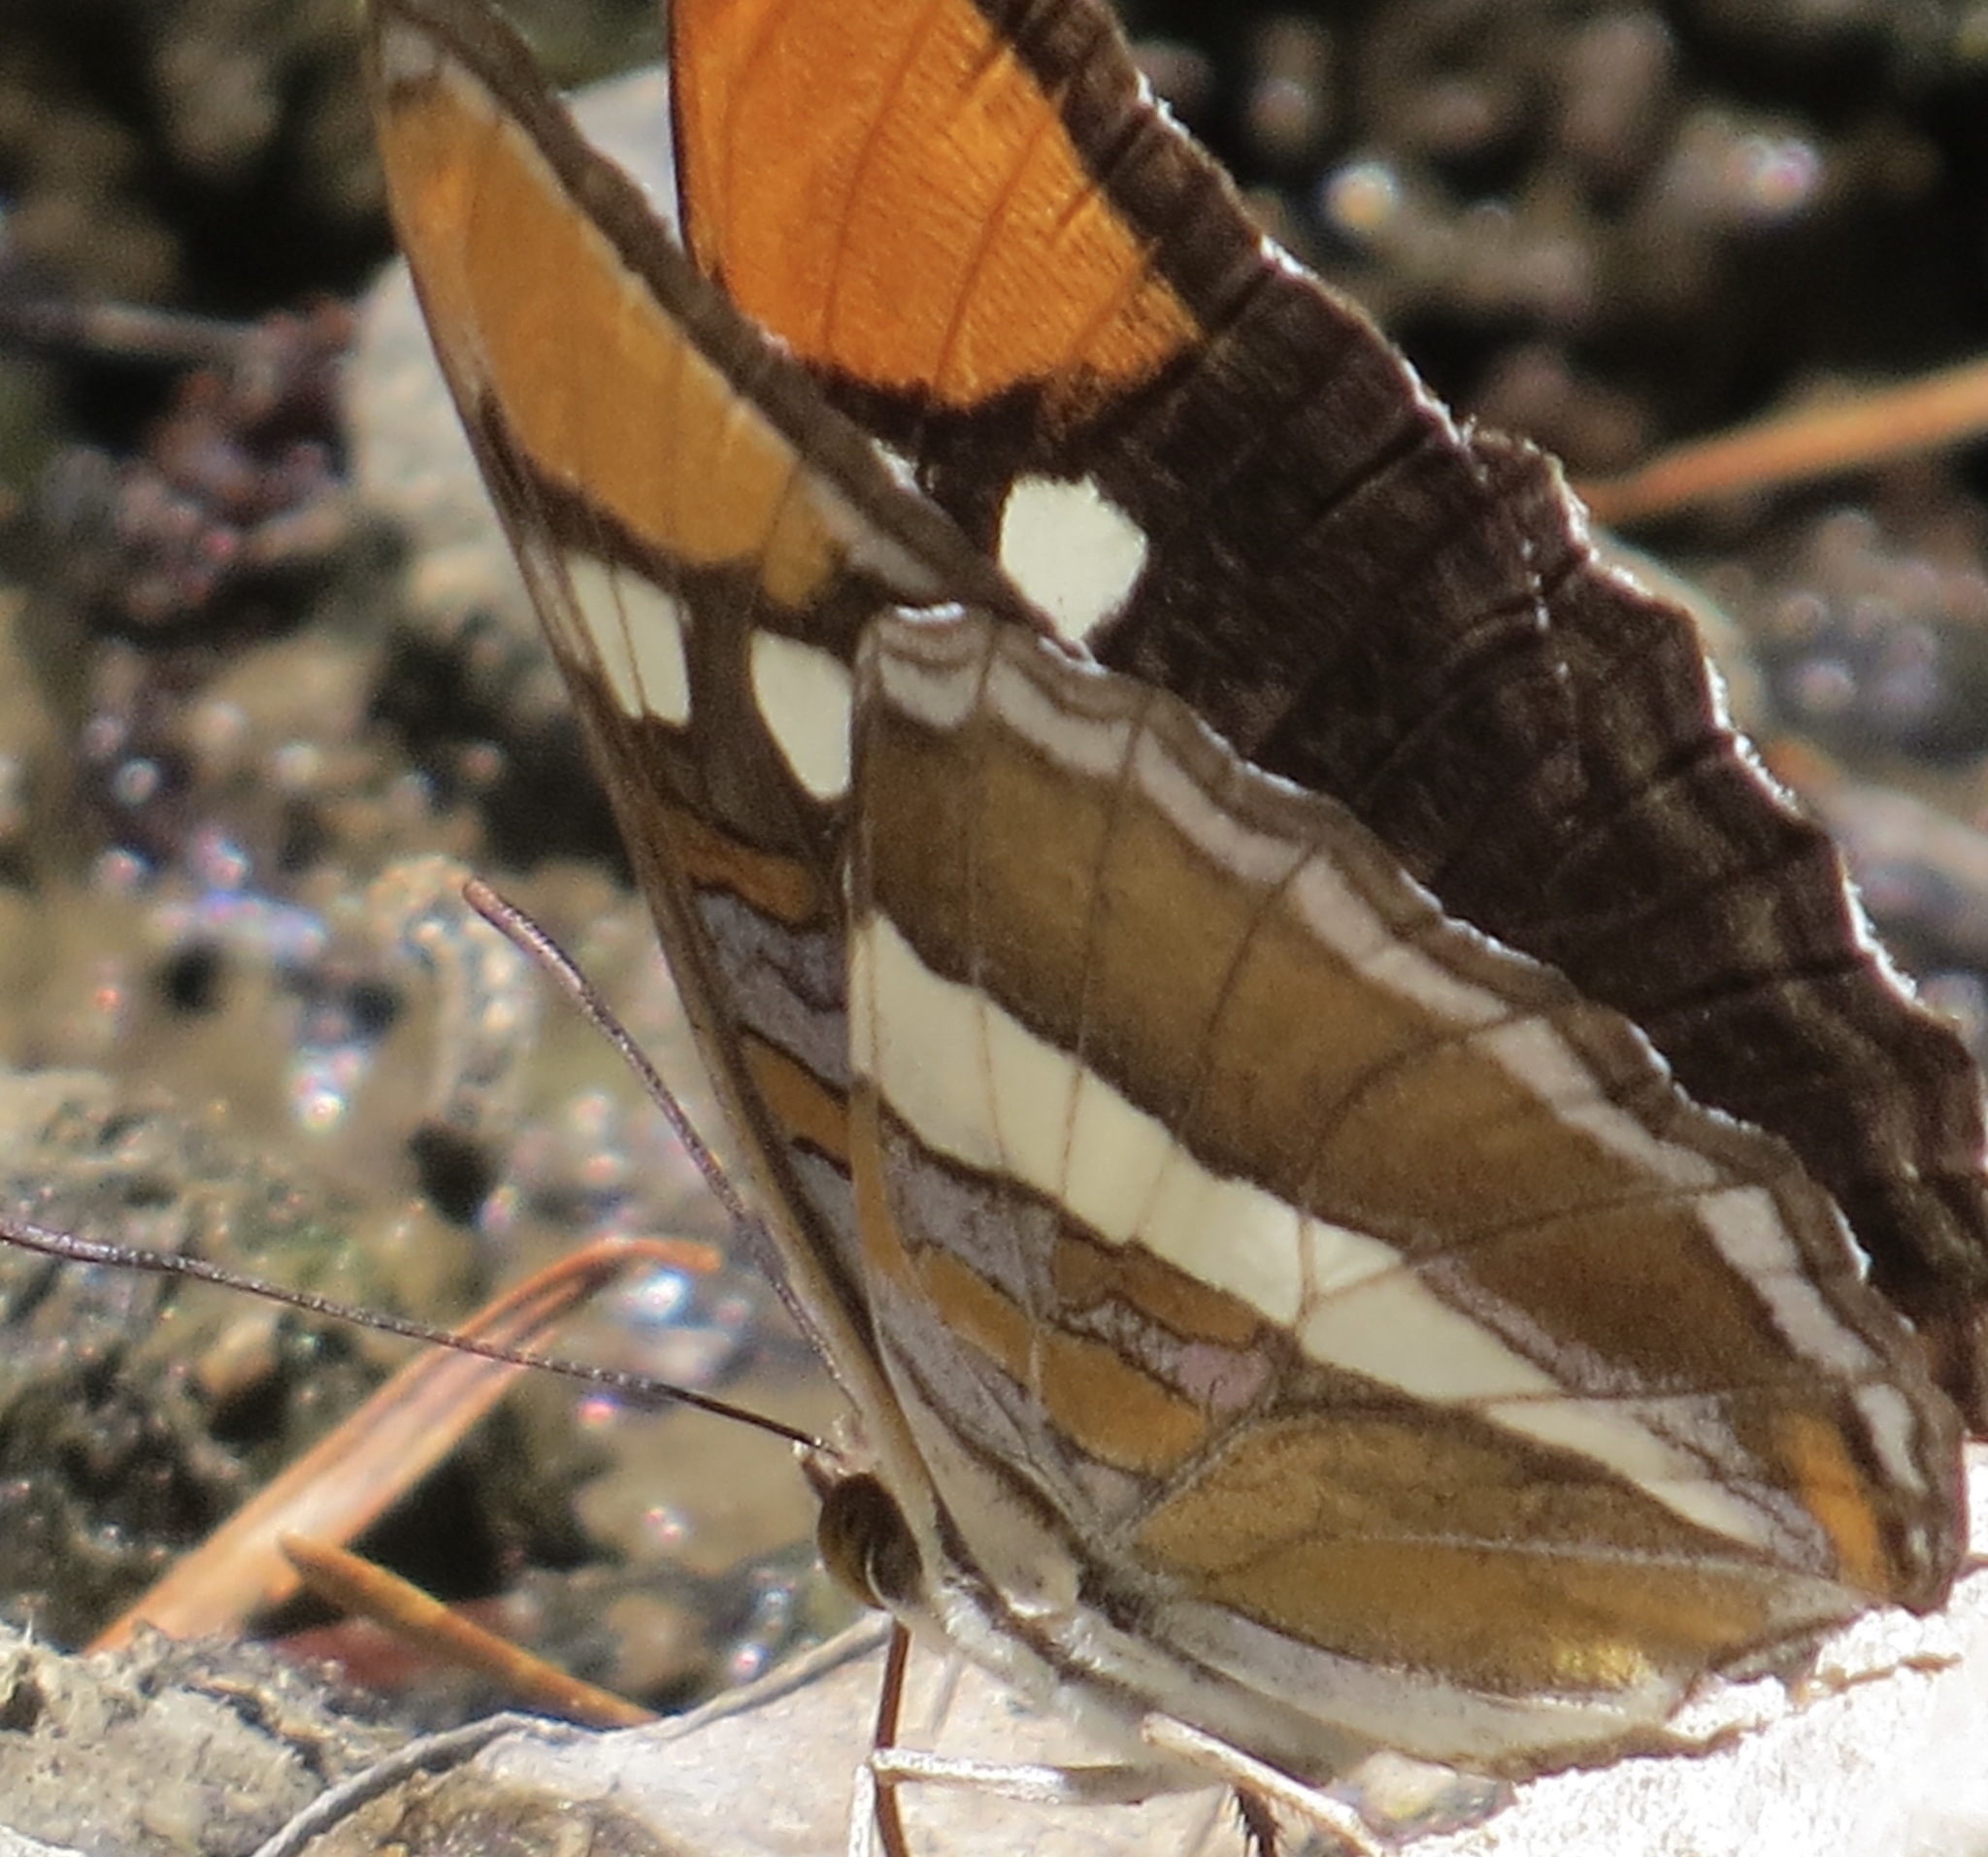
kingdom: Animalia
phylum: Arthropoda
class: Insecta
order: Lepidoptera
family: Nymphalidae
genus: Limenitis
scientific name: Limenitis bredowii
